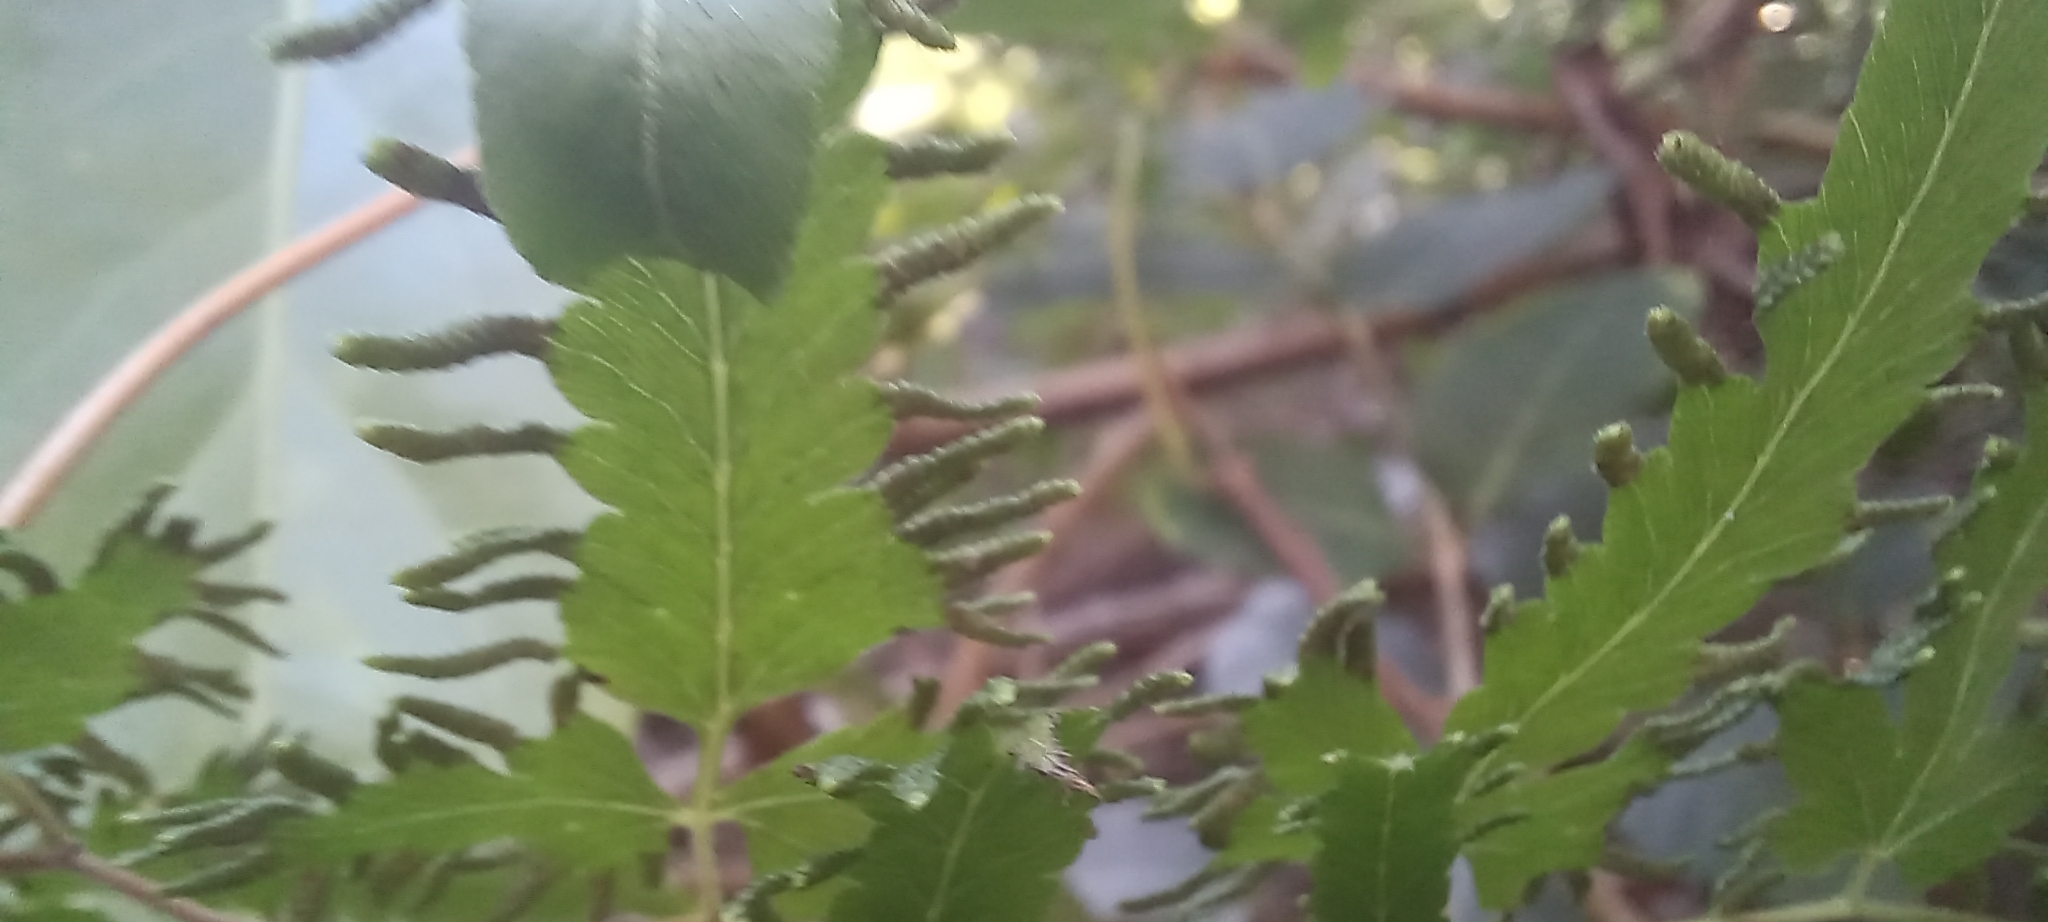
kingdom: Plantae
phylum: Tracheophyta
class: Polypodiopsida
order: Schizaeales
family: Lygodiaceae
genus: Lygodium
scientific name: Lygodium venustum
